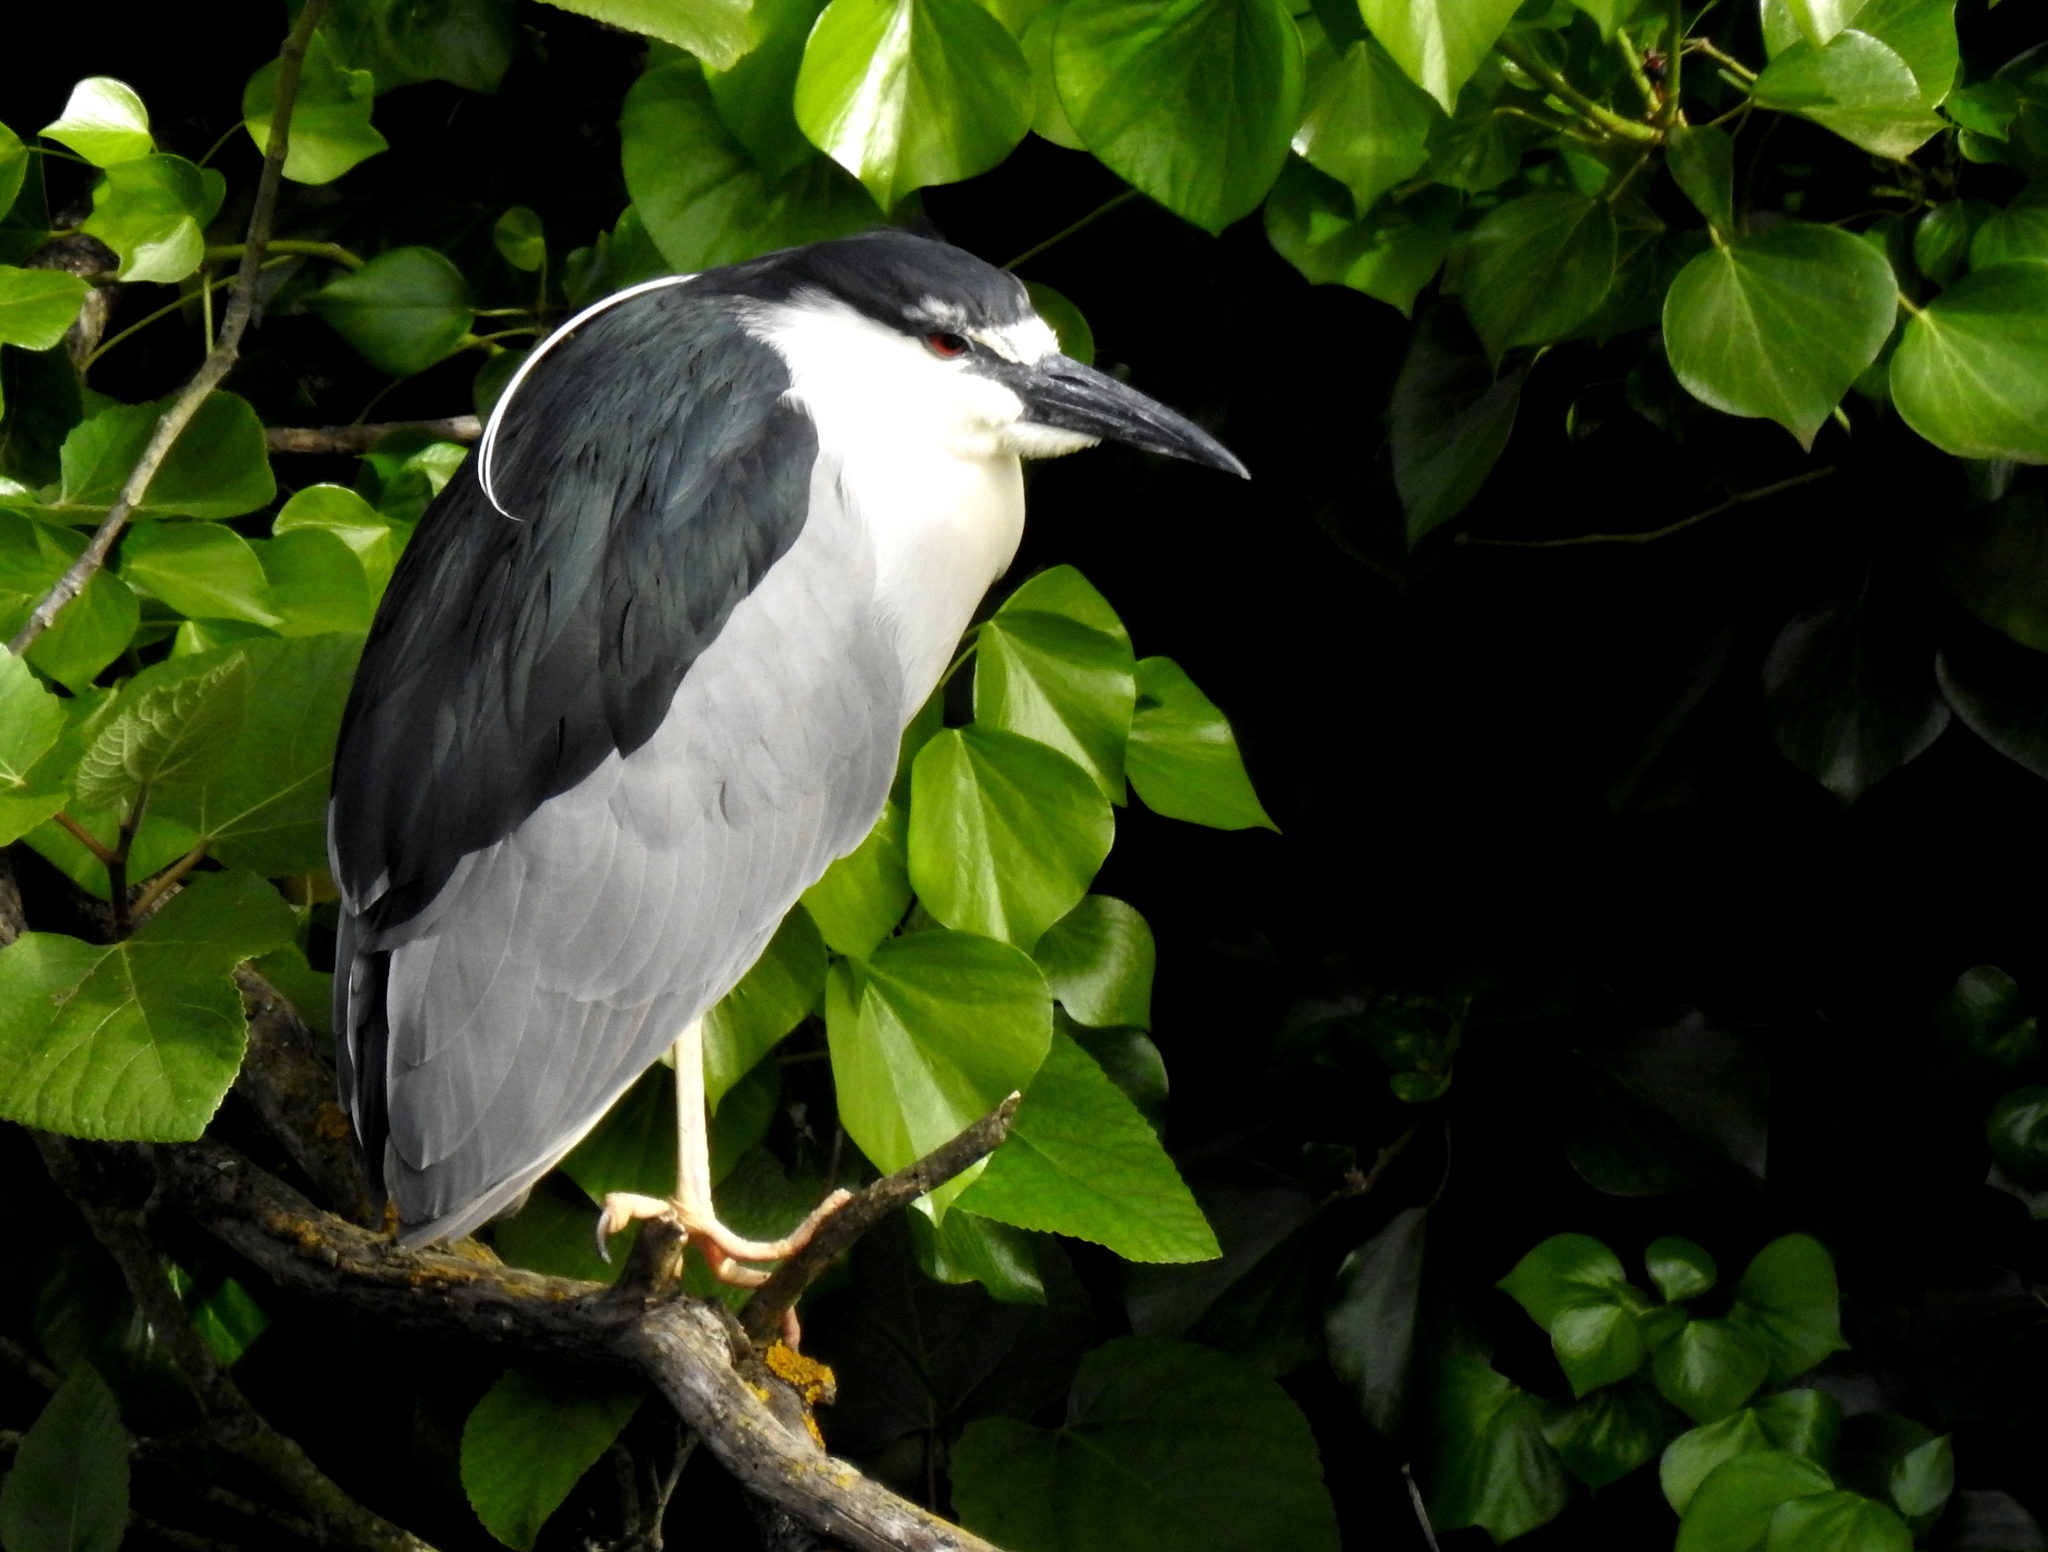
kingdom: Animalia
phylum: Chordata
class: Aves
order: Pelecaniformes
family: Ardeidae
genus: Nycticorax
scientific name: Nycticorax nycticorax
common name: Black-crowned night heron
